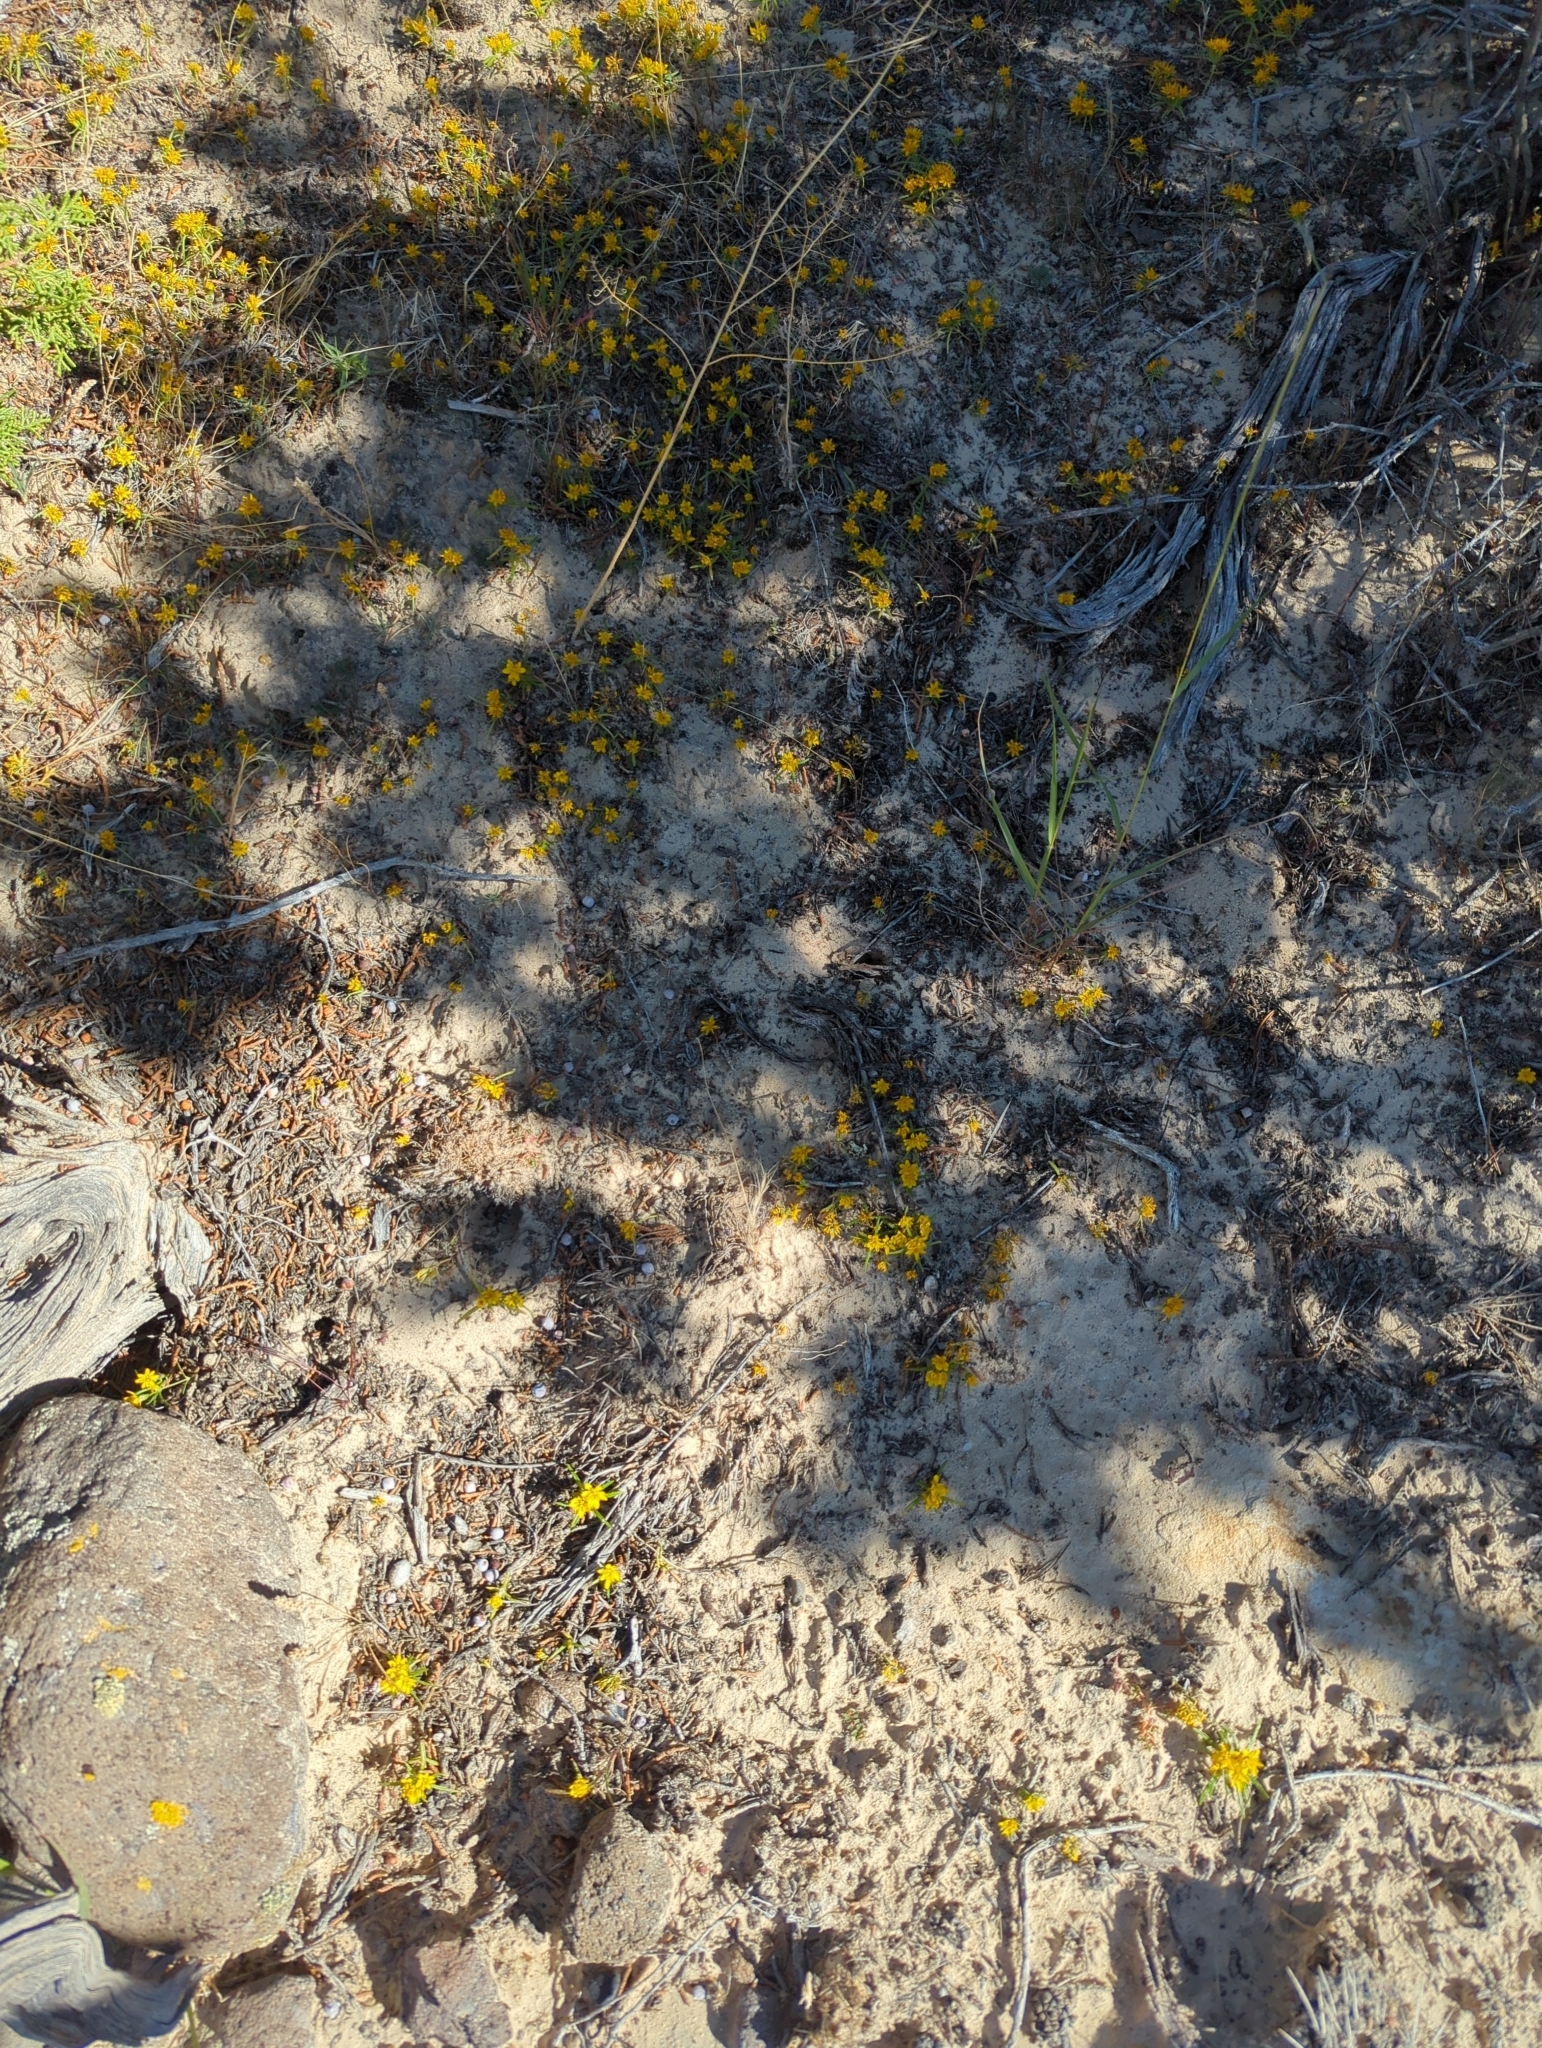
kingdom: Plantae
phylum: Tracheophyta
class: Magnoliopsida
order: Asterales
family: Asteraceae
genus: Pectis
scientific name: Pectis papposa
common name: Many-bristle chinchweed
